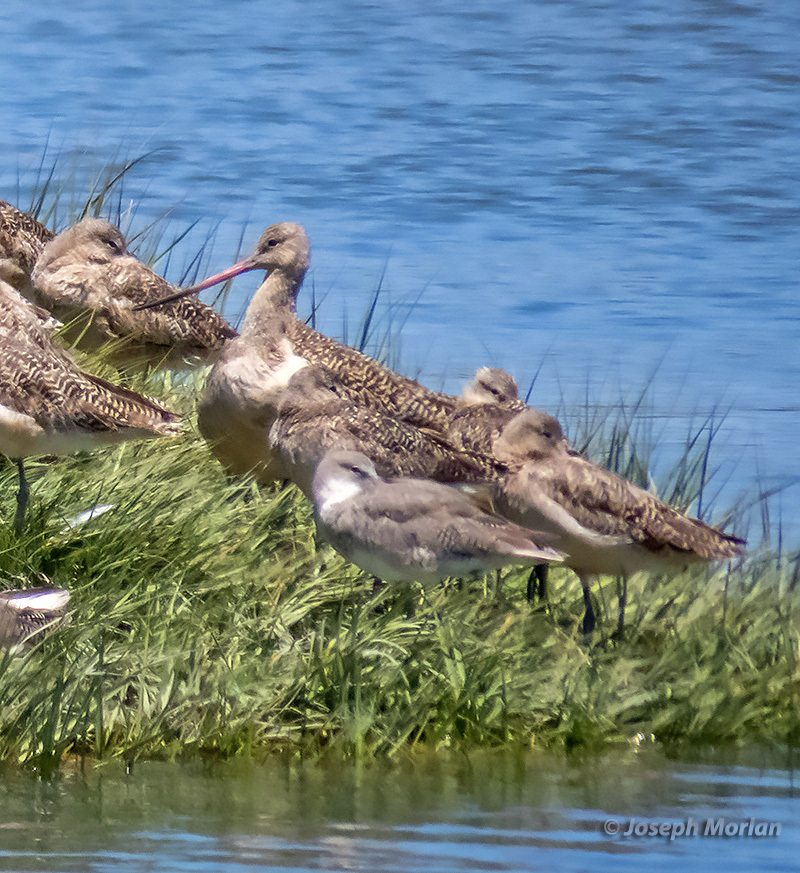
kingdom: Animalia
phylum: Chordata
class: Aves
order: Charadriiformes
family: Scolopacidae
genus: Limosa
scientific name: Limosa fedoa
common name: Marbled godwit
